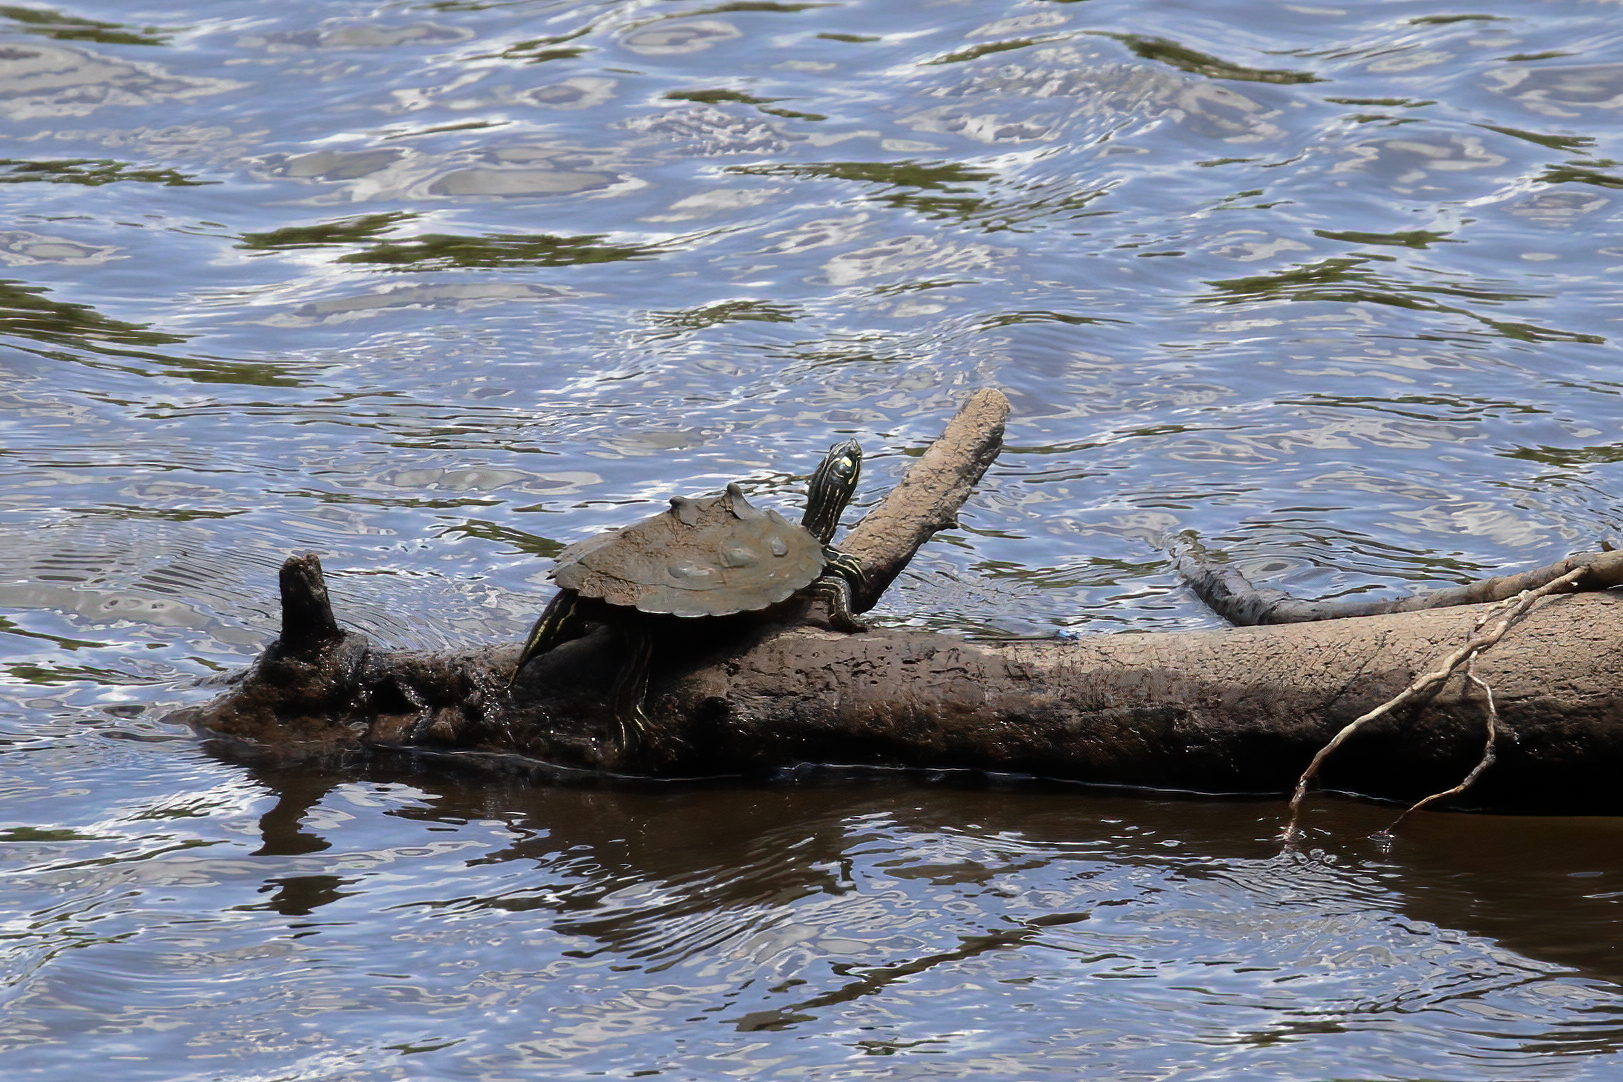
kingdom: Animalia
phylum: Chordata
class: Testudines
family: Emydidae
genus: Graptemys
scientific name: Graptemys oculifera
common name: Ringed map turtle
